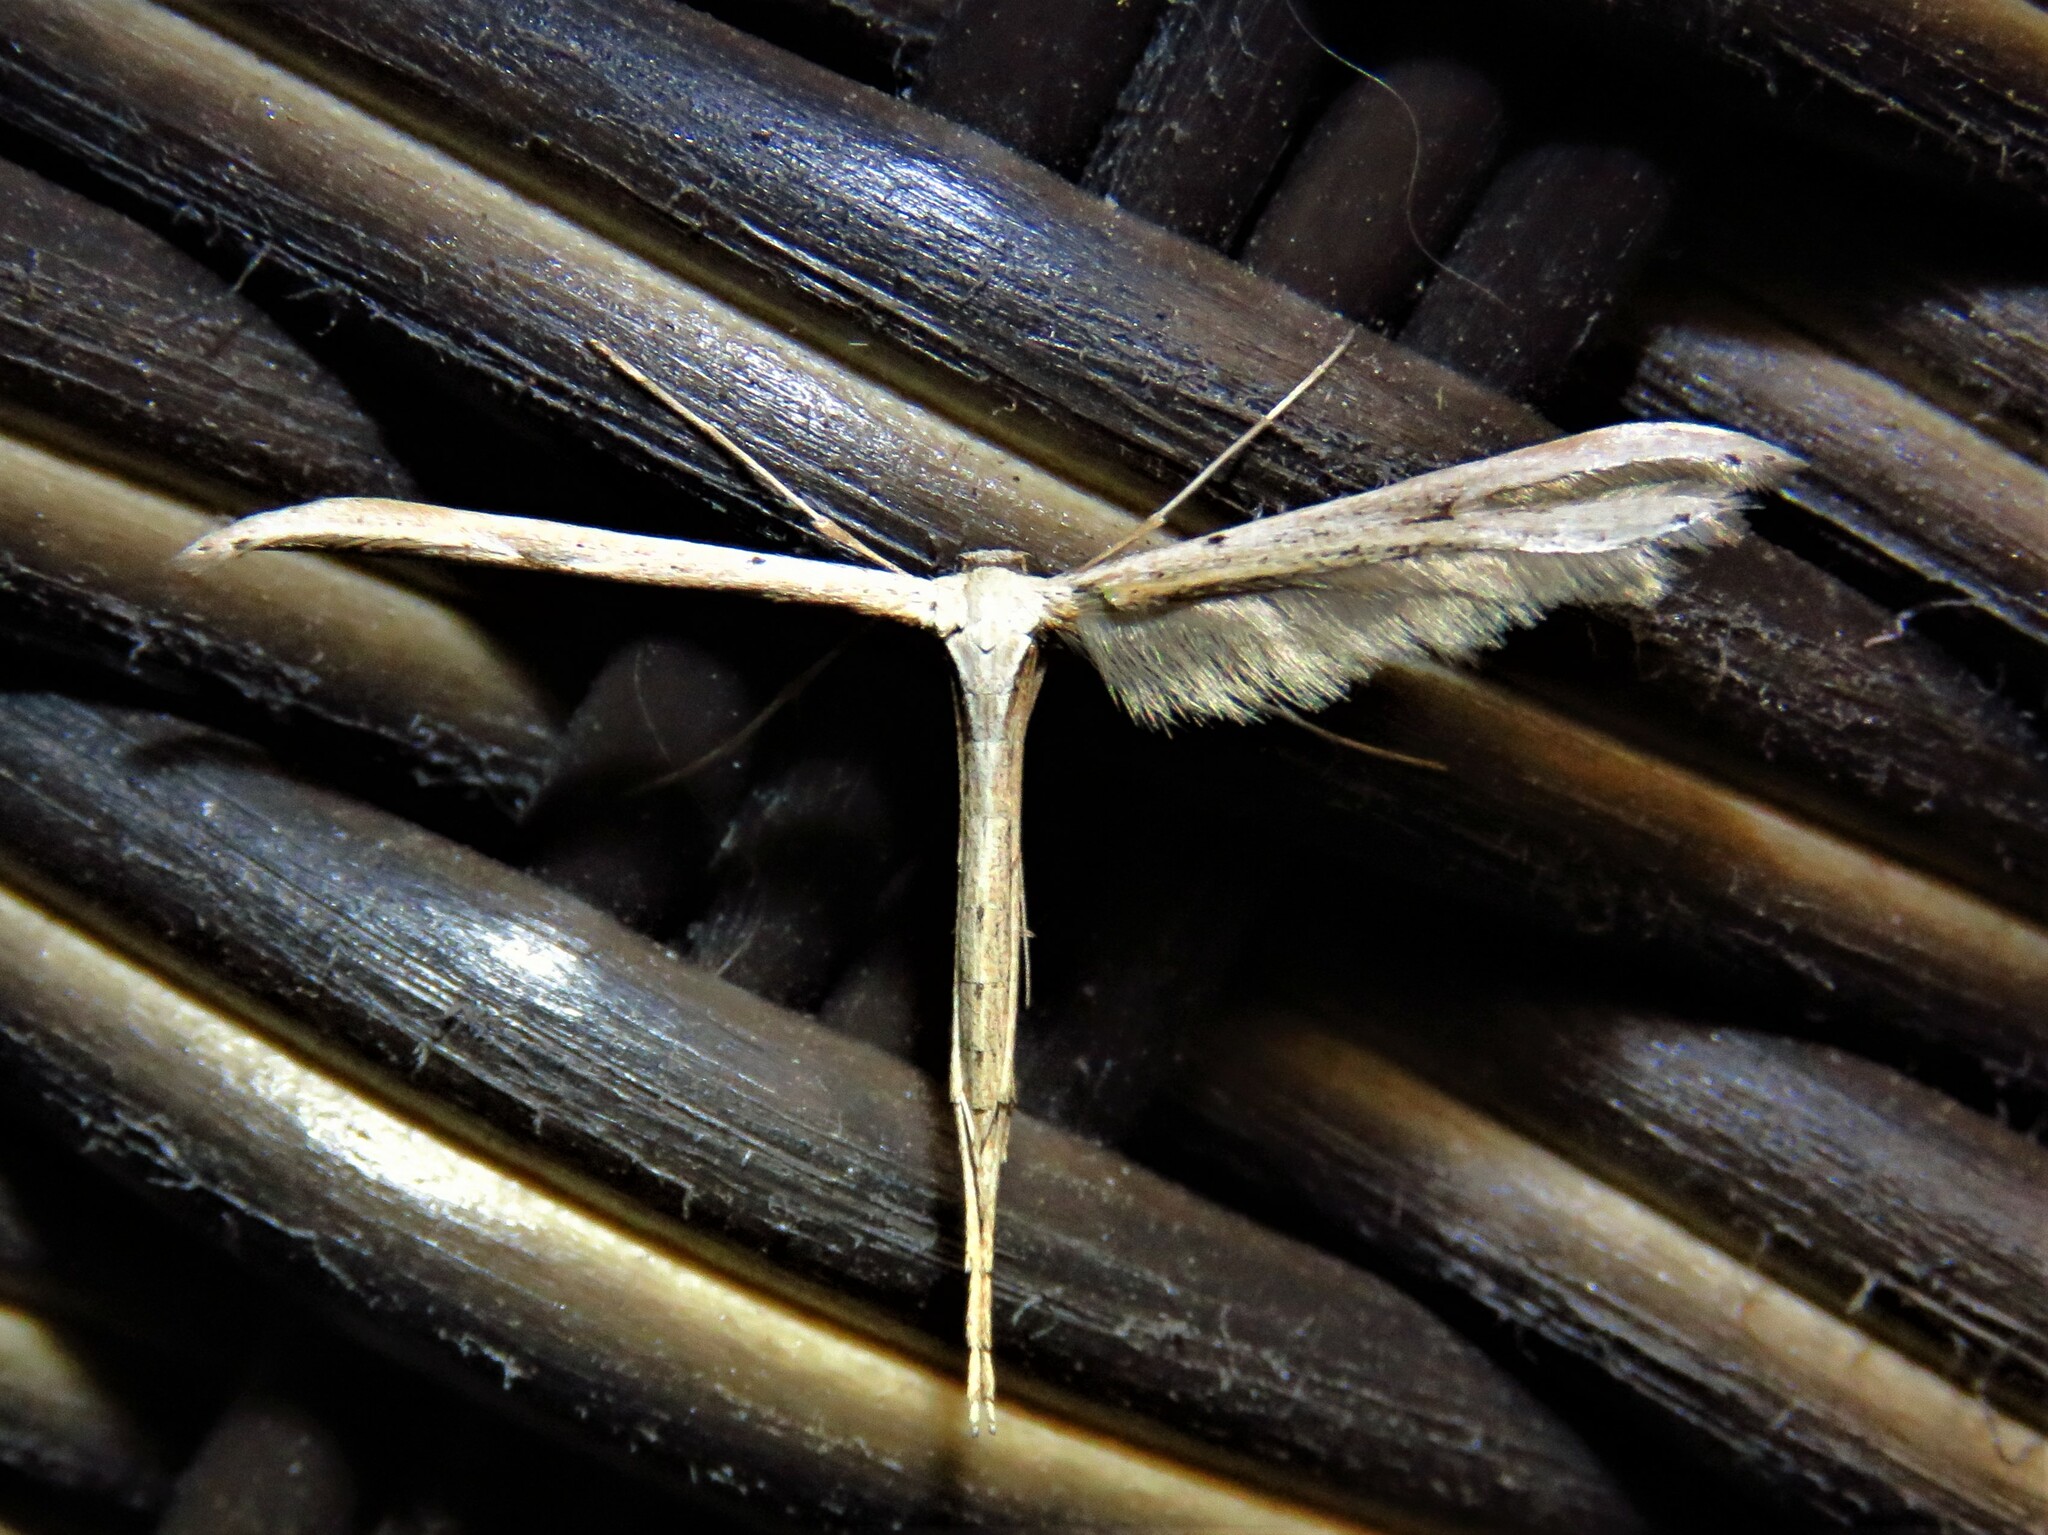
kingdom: Animalia
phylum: Arthropoda
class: Insecta
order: Lepidoptera
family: Pterophoridae
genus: Emmelina
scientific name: Emmelina monodactyla
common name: Common plume
